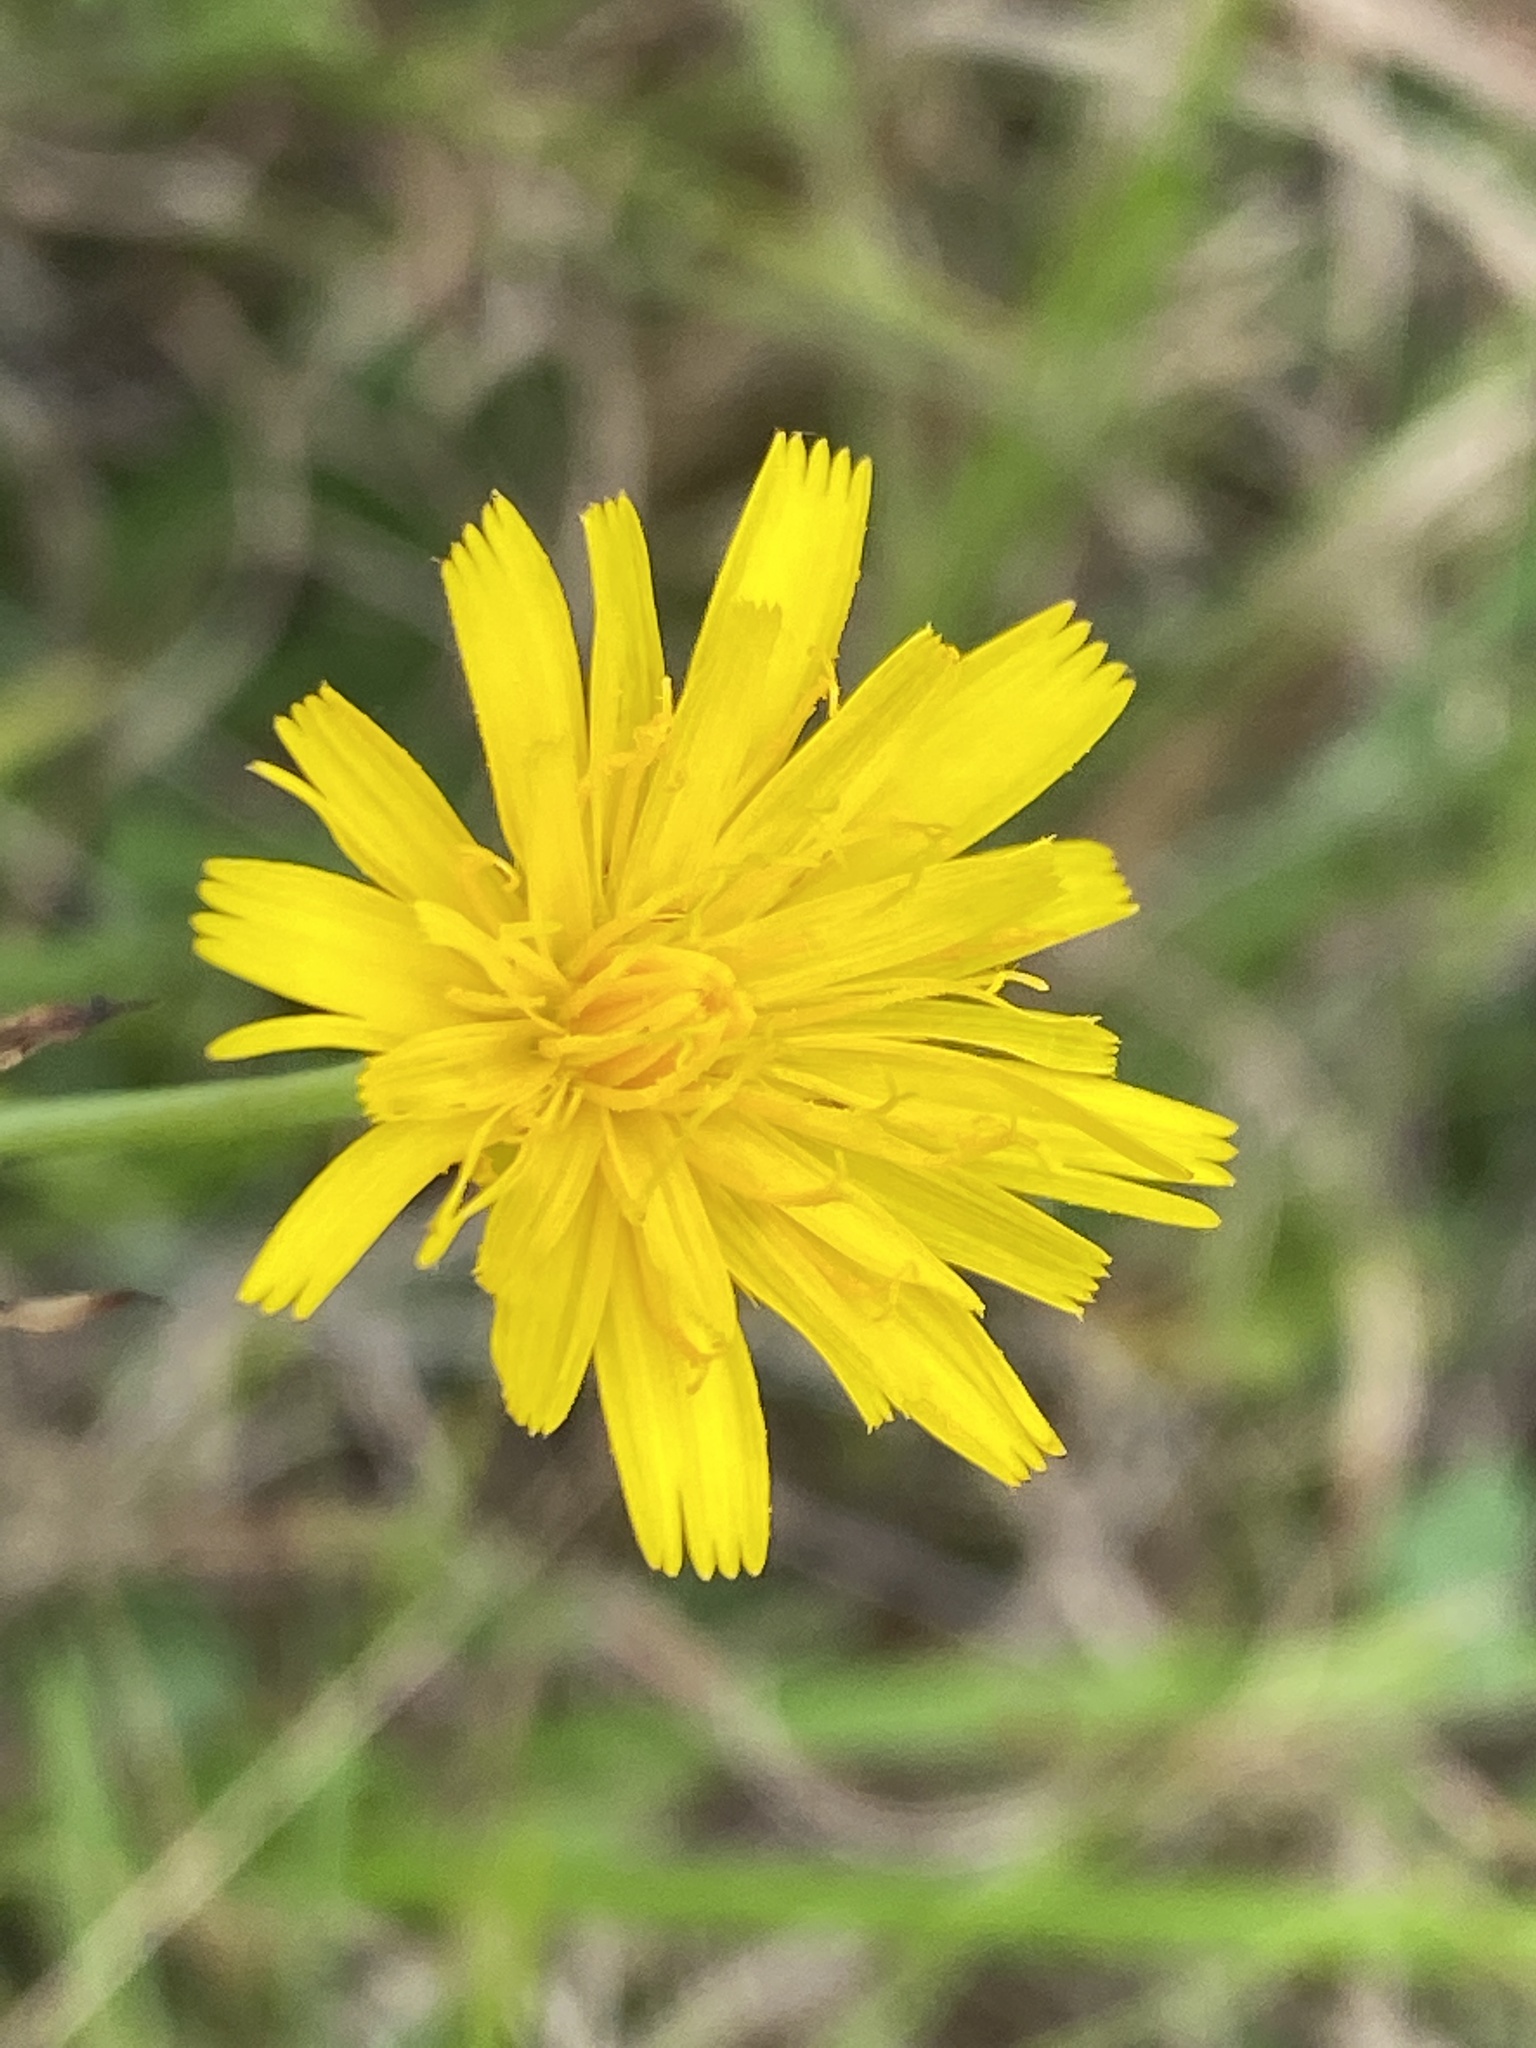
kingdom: Plantae
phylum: Tracheophyta
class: Magnoliopsida
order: Asterales
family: Asteraceae
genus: Hypochaeris
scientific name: Hypochaeris radicata
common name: Flatweed
